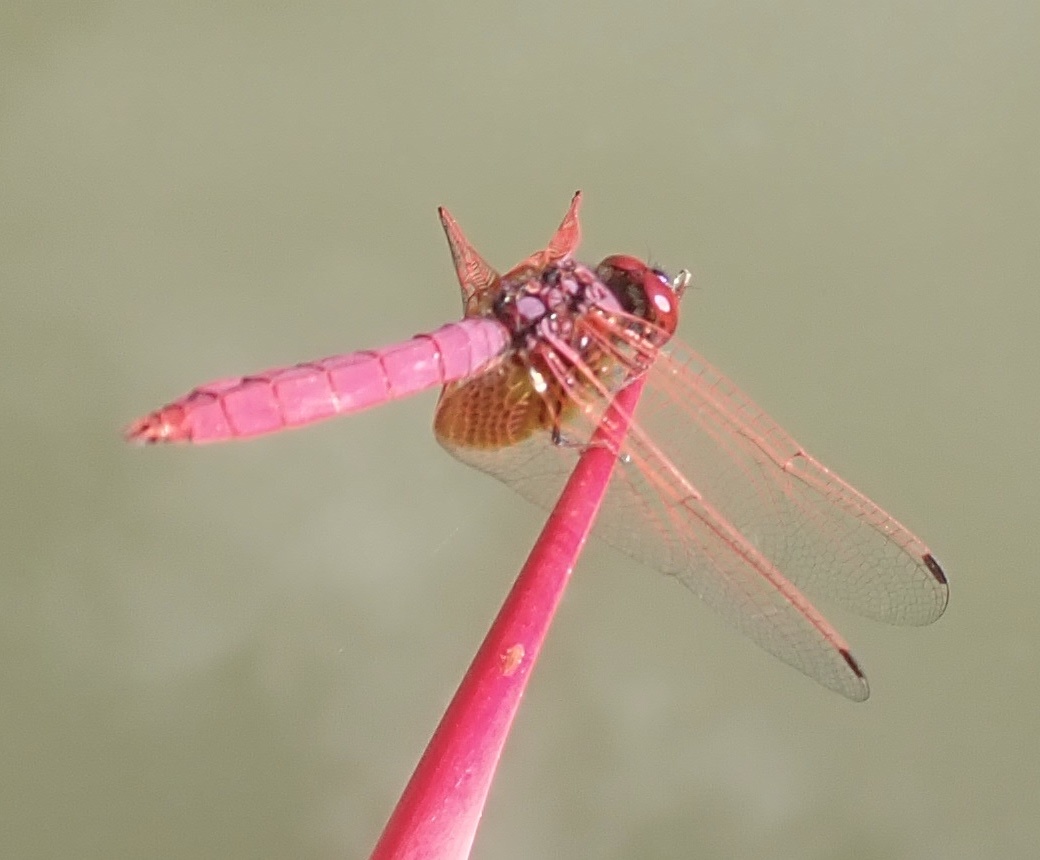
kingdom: Animalia
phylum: Arthropoda
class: Insecta
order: Odonata
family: Libellulidae
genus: Trithemis
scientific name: Trithemis aurora
